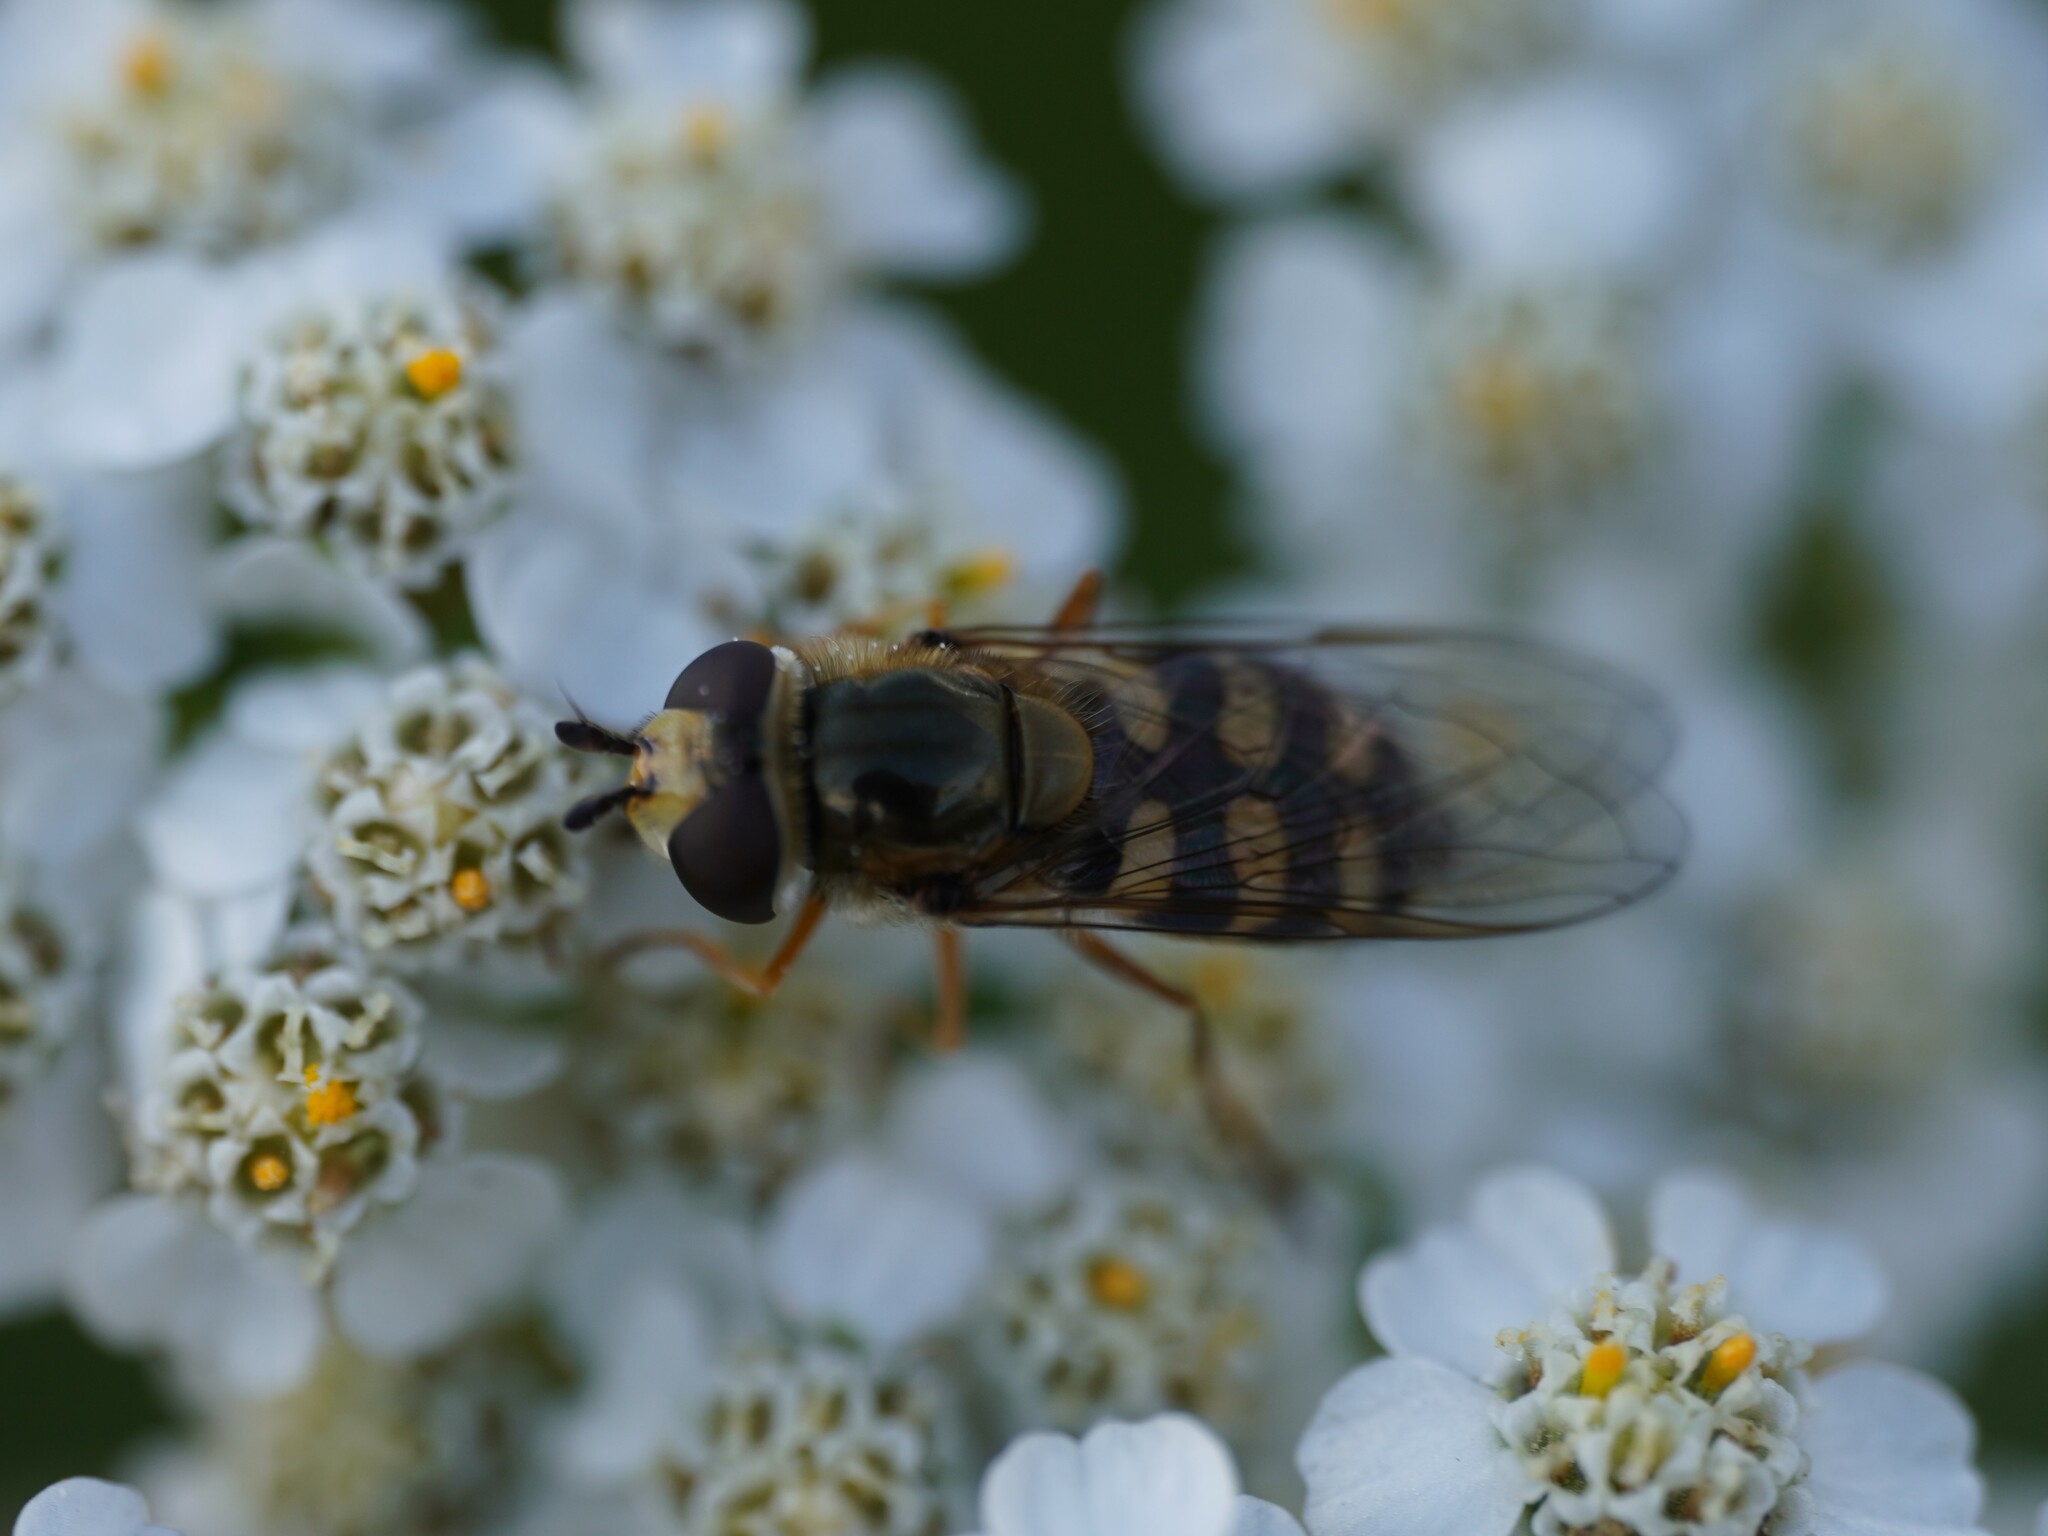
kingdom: Animalia
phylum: Arthropoda
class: Insecta
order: Diptera
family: Syrphidae
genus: Eupeodes
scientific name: Eupeodes corollae
